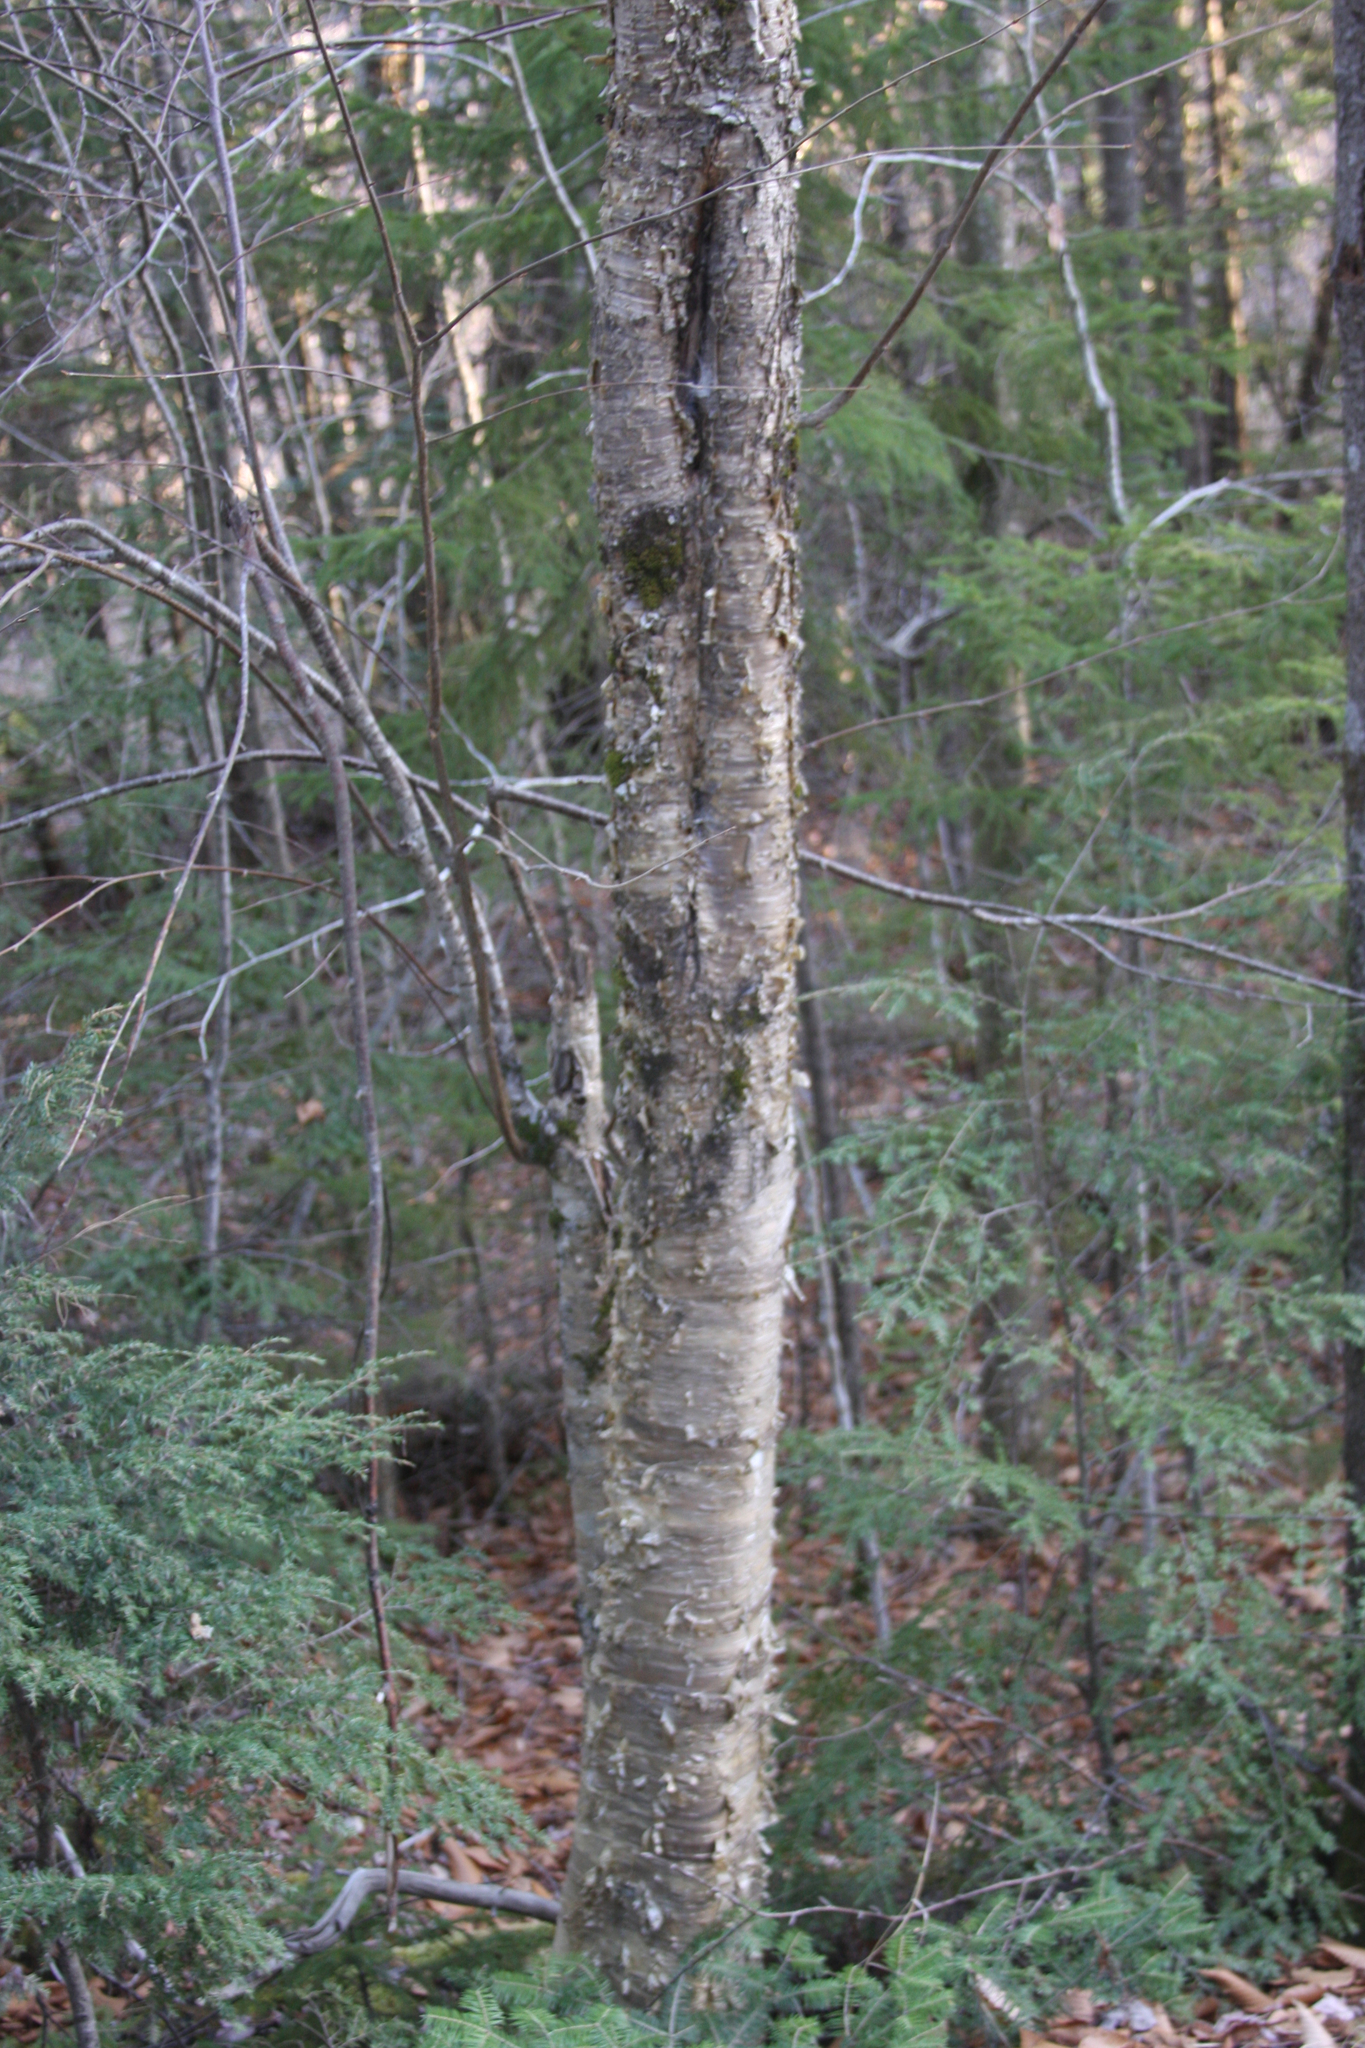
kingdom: Plantae
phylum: Tracheophyta
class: Magnoliopsida
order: Fagales
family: Betulaceae
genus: Betula
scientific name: Betula alleghaniensis
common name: Yellow birch
